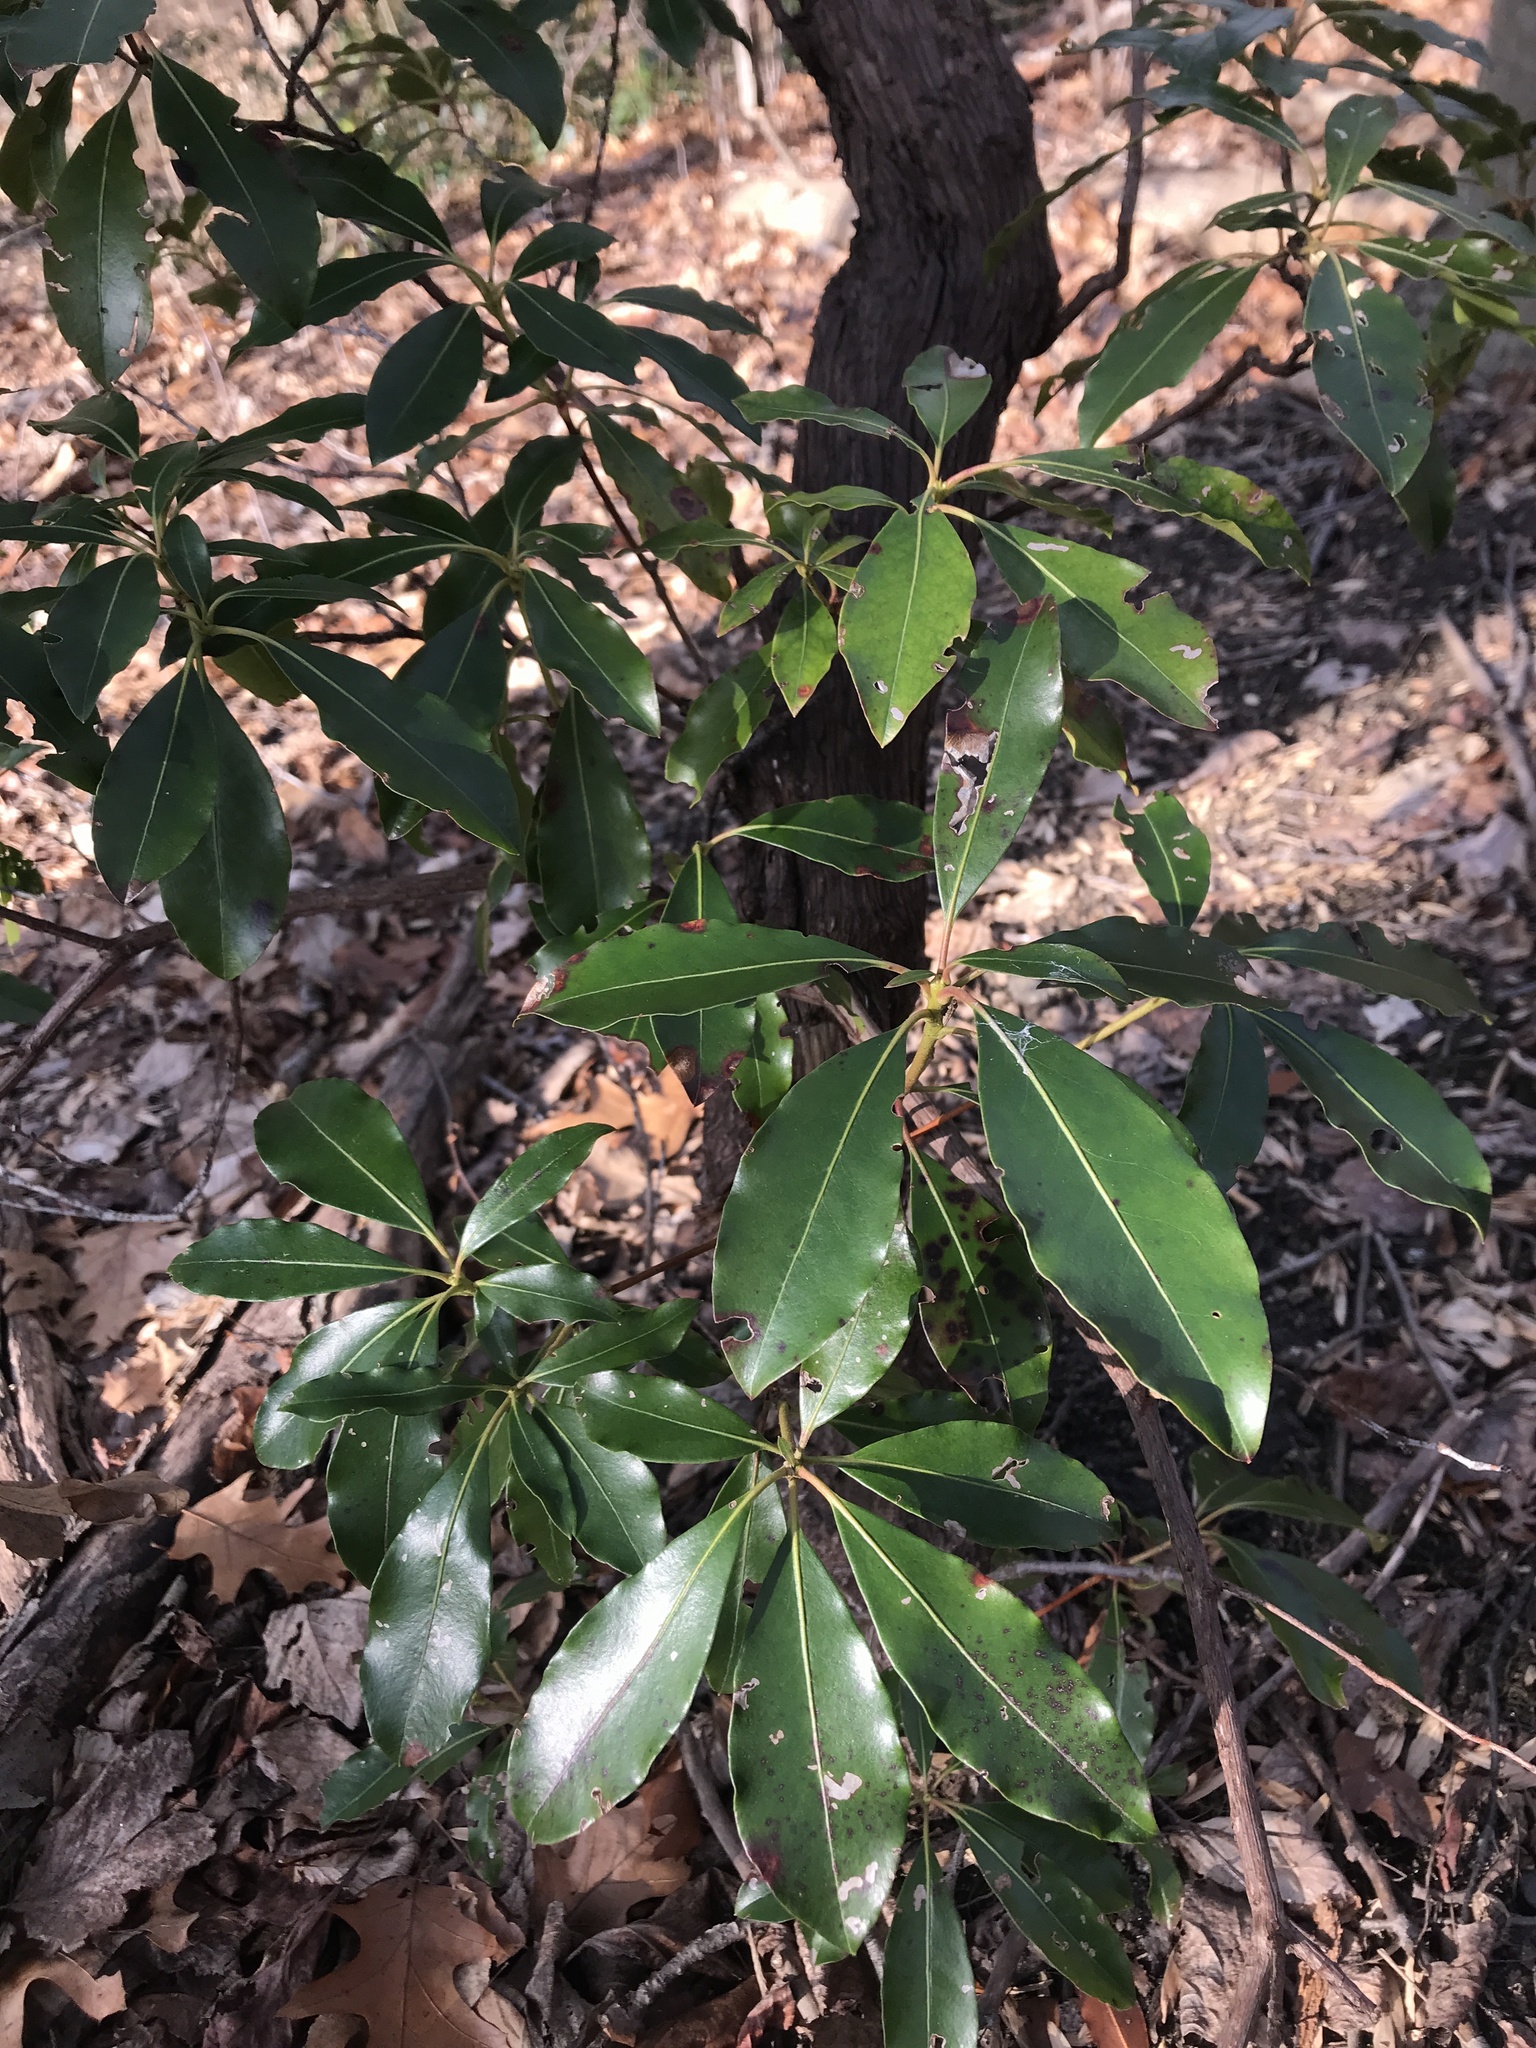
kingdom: Plantae
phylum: Tracheophyta
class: Magnoliopsida
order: Ericales
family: Ericaceae
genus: Kalmia
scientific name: Kalmia latifolia
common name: Mountain-laurel
